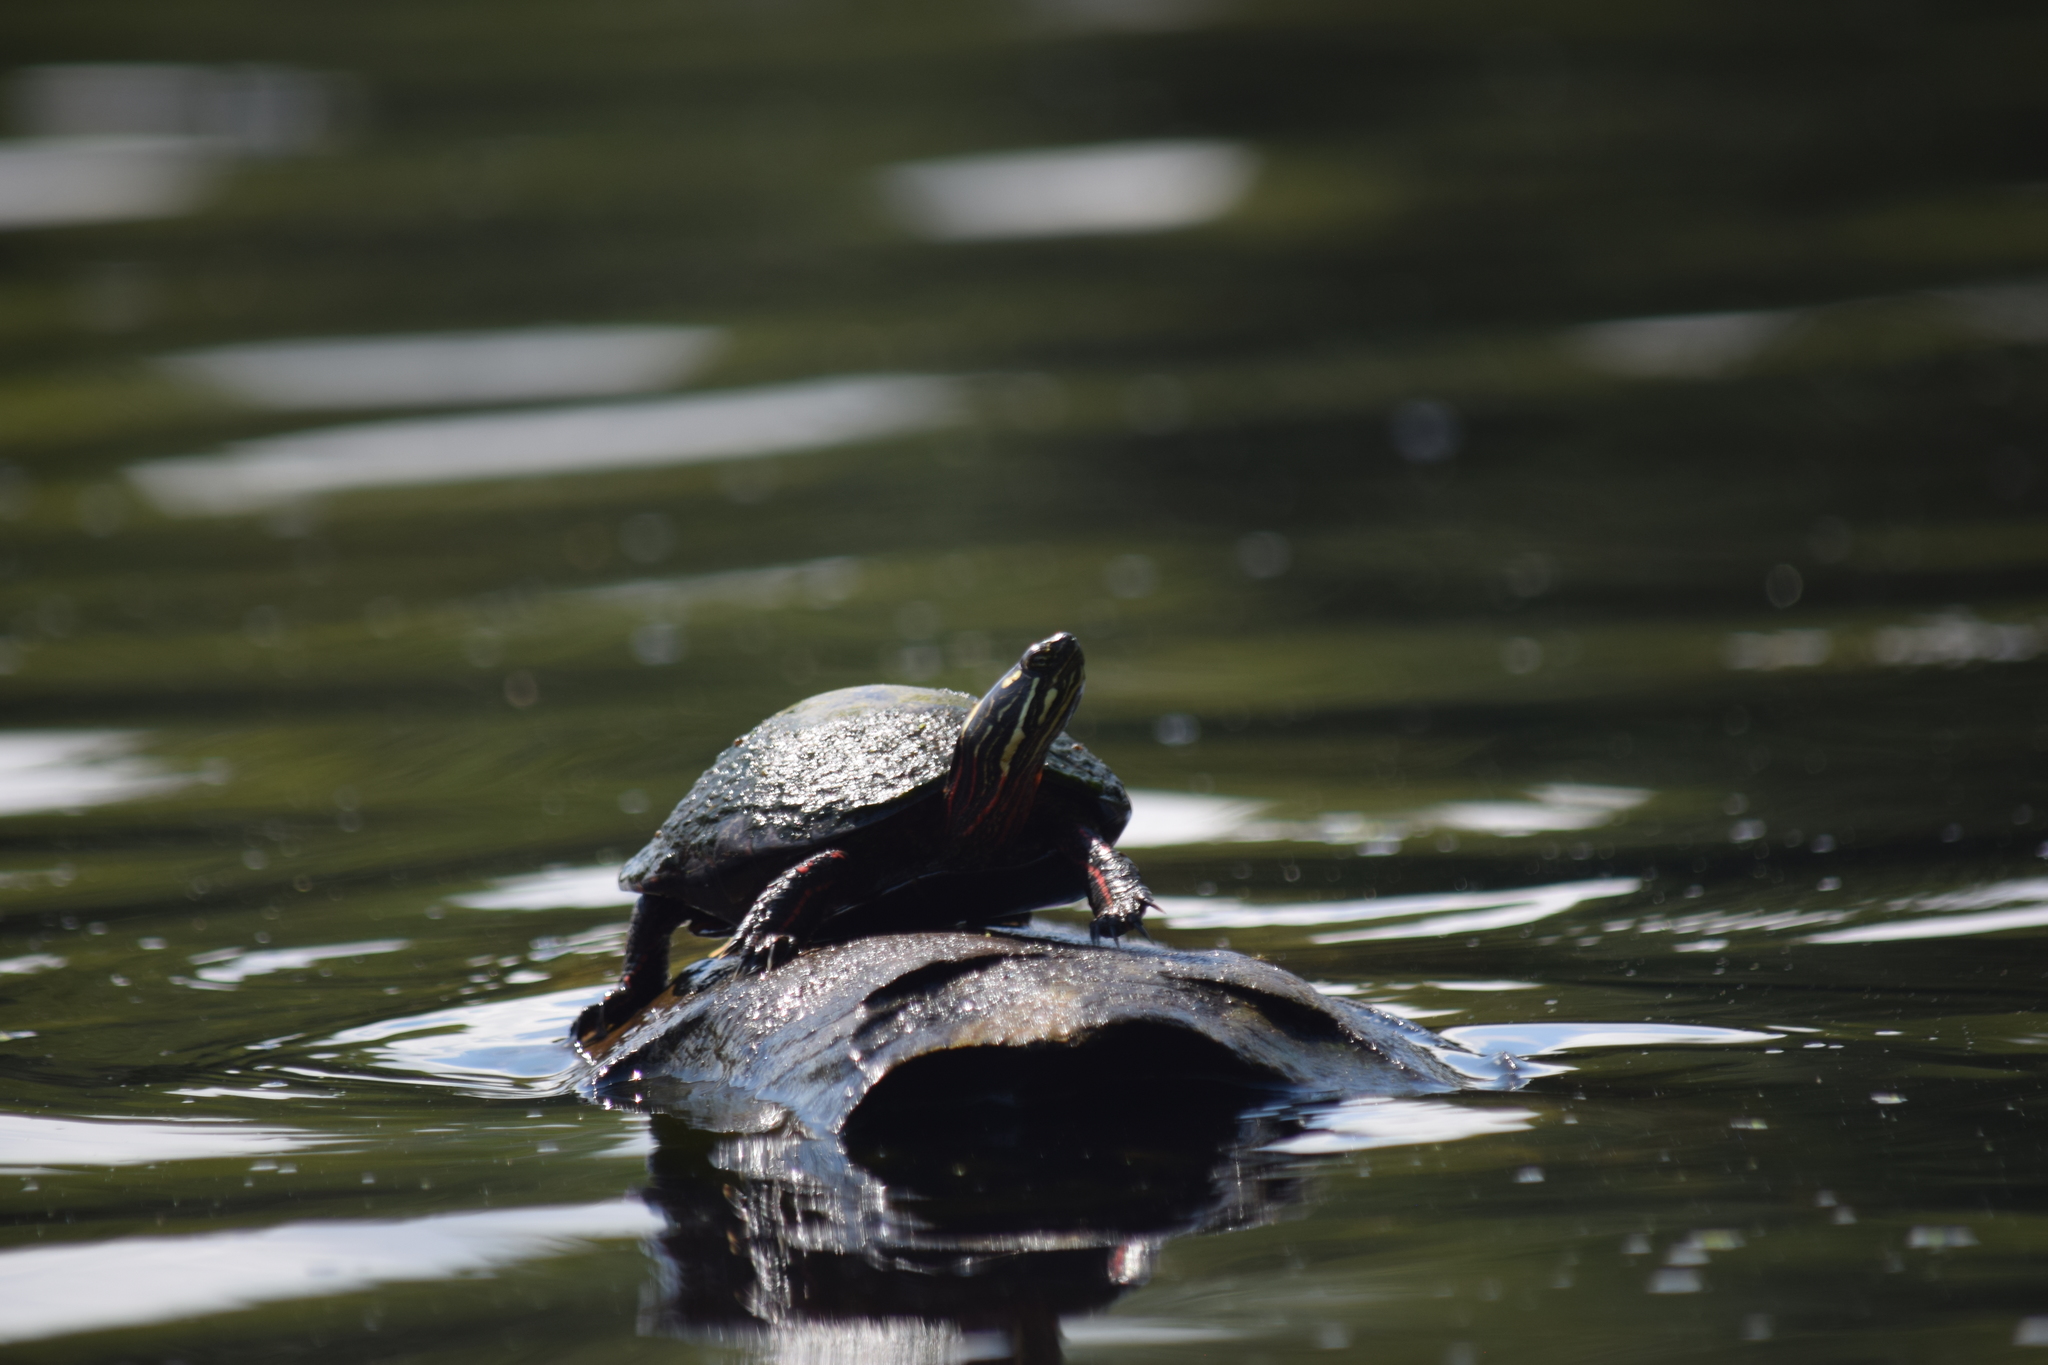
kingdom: Animalia
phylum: Chordata
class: Testudines
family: Emydidae
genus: Chrysemys
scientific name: Chrysemys picta
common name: Painted turtle
